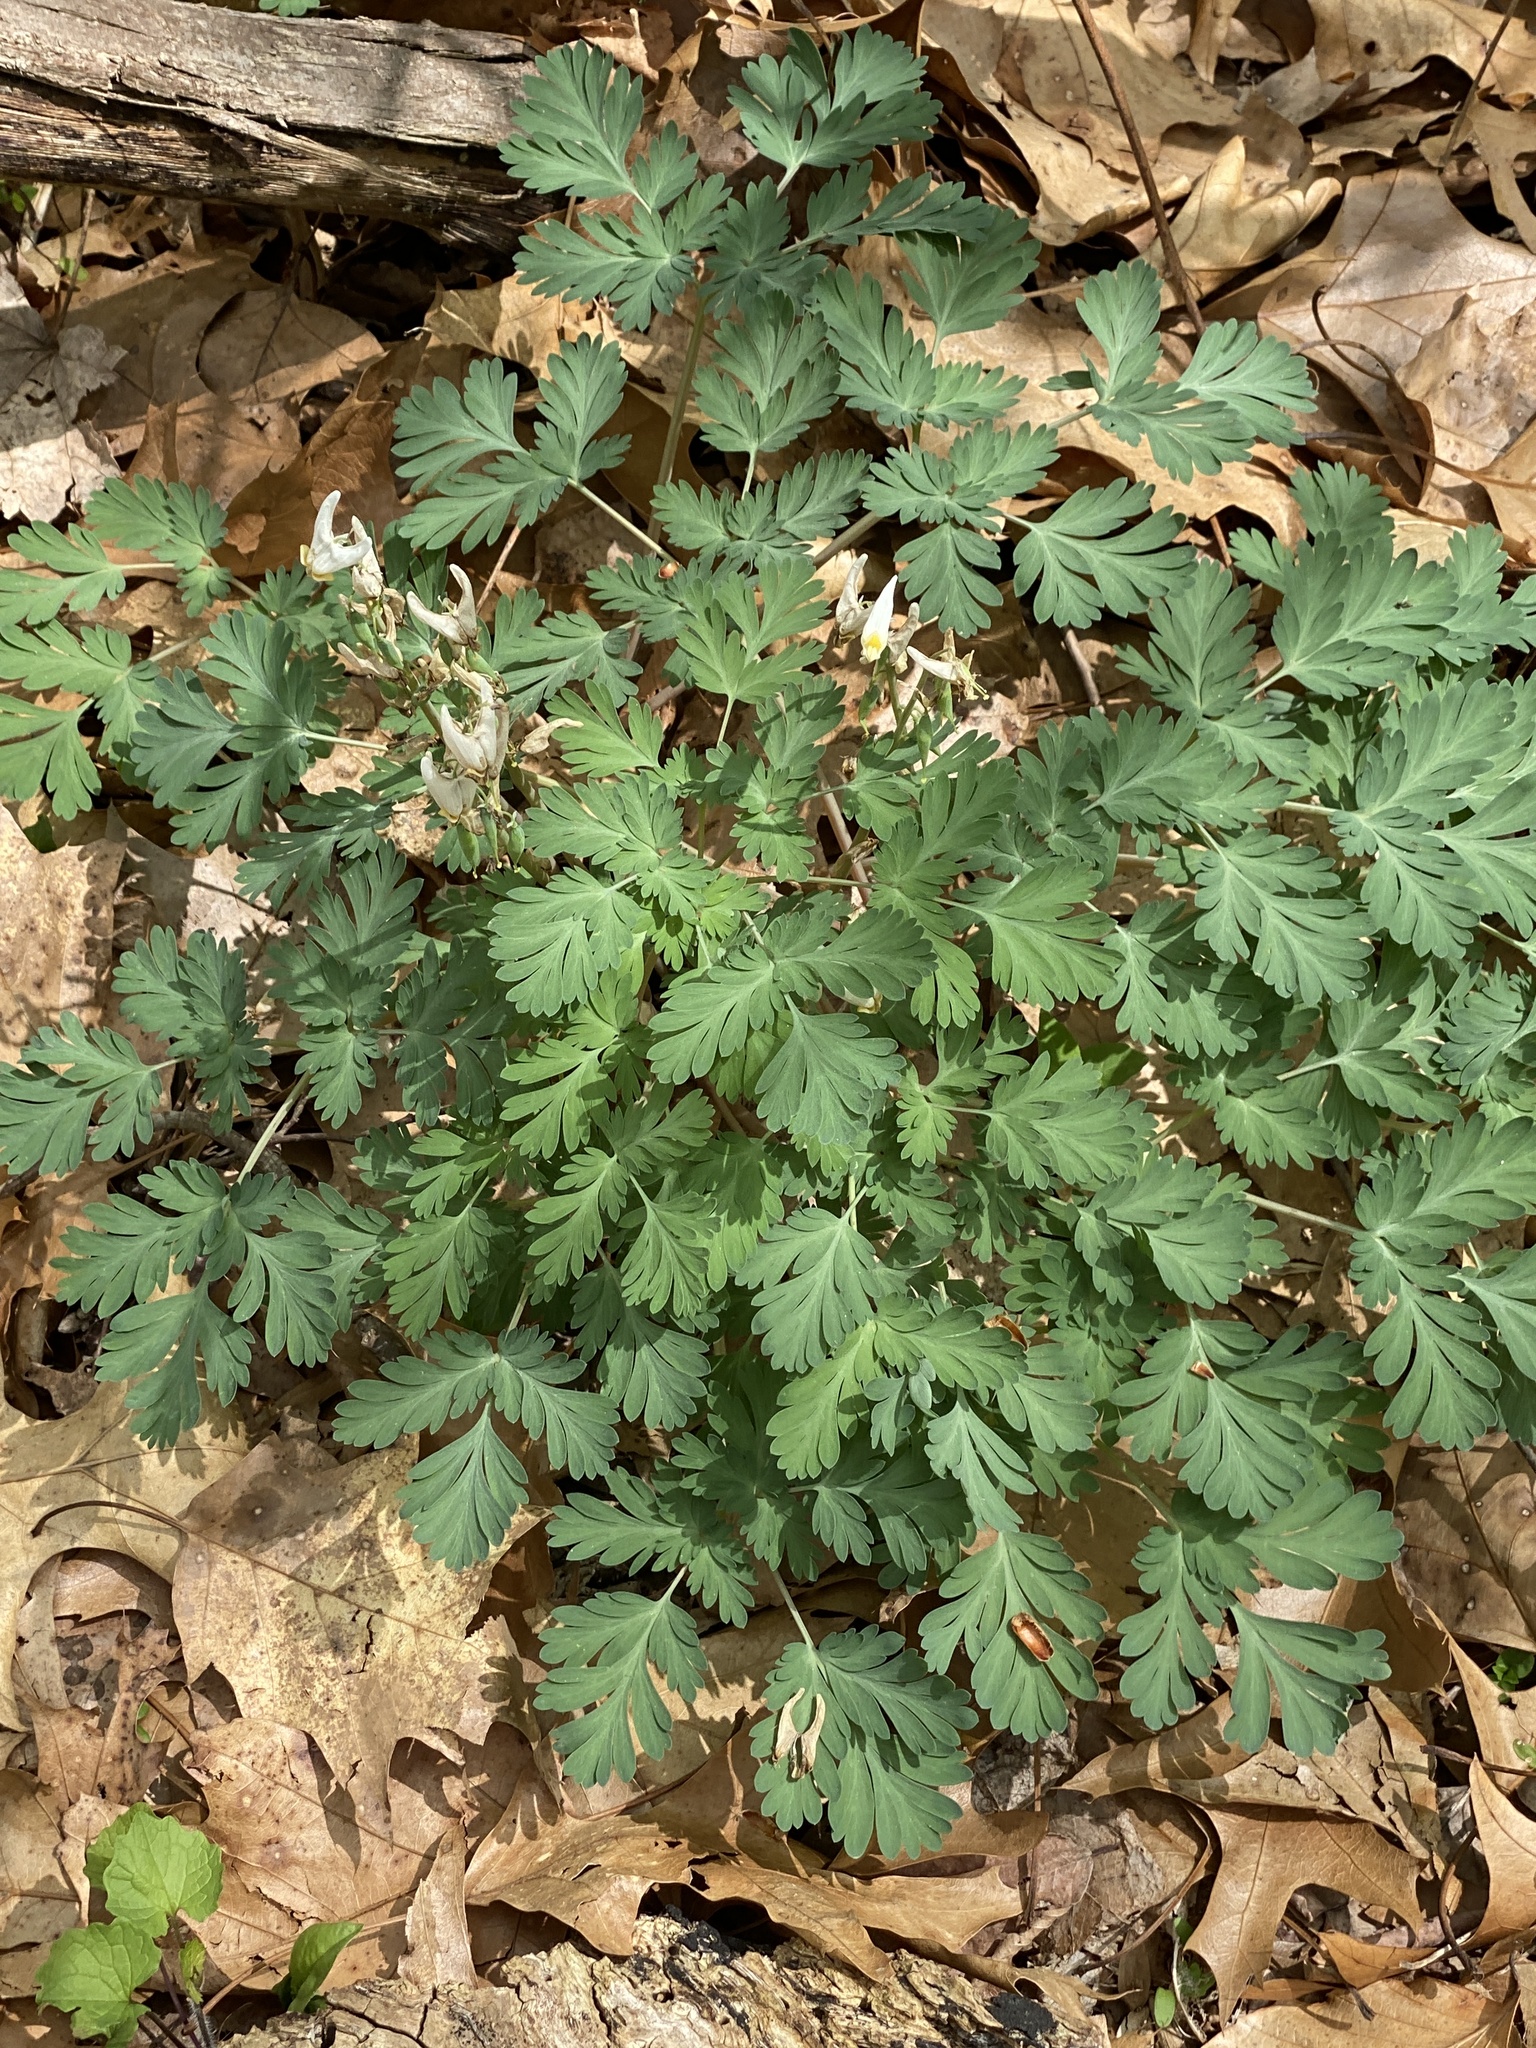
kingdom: Plantae
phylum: Tracheophyta
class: Magnoliopsida
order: Ranunculales
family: Papaveraceae
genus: Dicentra
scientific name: Dicentra cucullaria
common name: Dutchman's breeches
